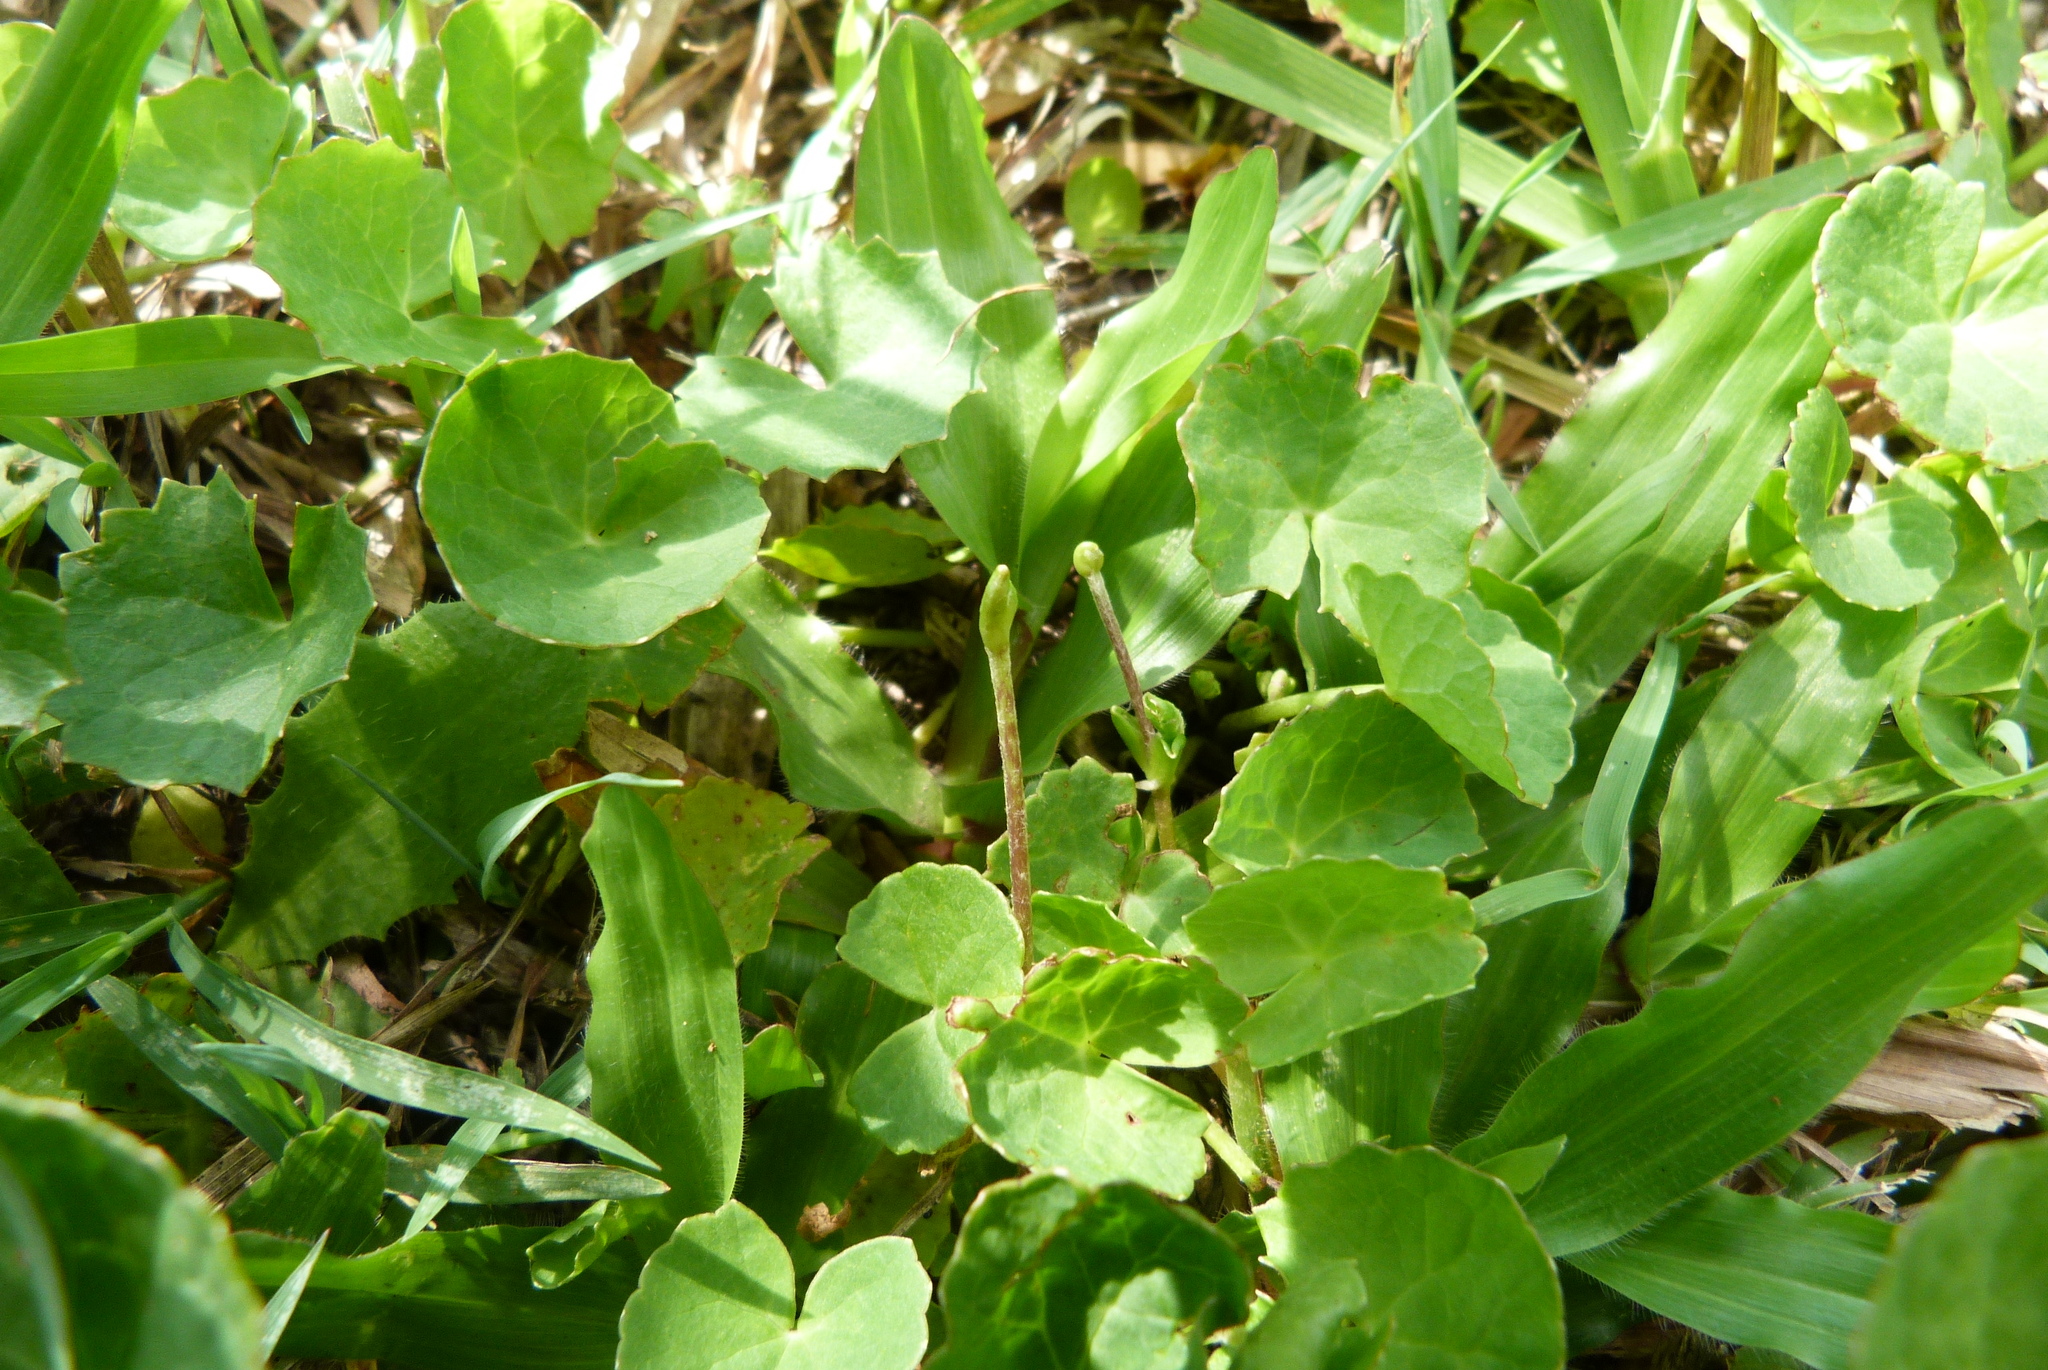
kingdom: Plantae
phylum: Tracheophyta
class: Magnoliopsida
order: Apiales
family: Apiaceae
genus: Centella
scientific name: Centella asiatica
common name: Spadeleaf
